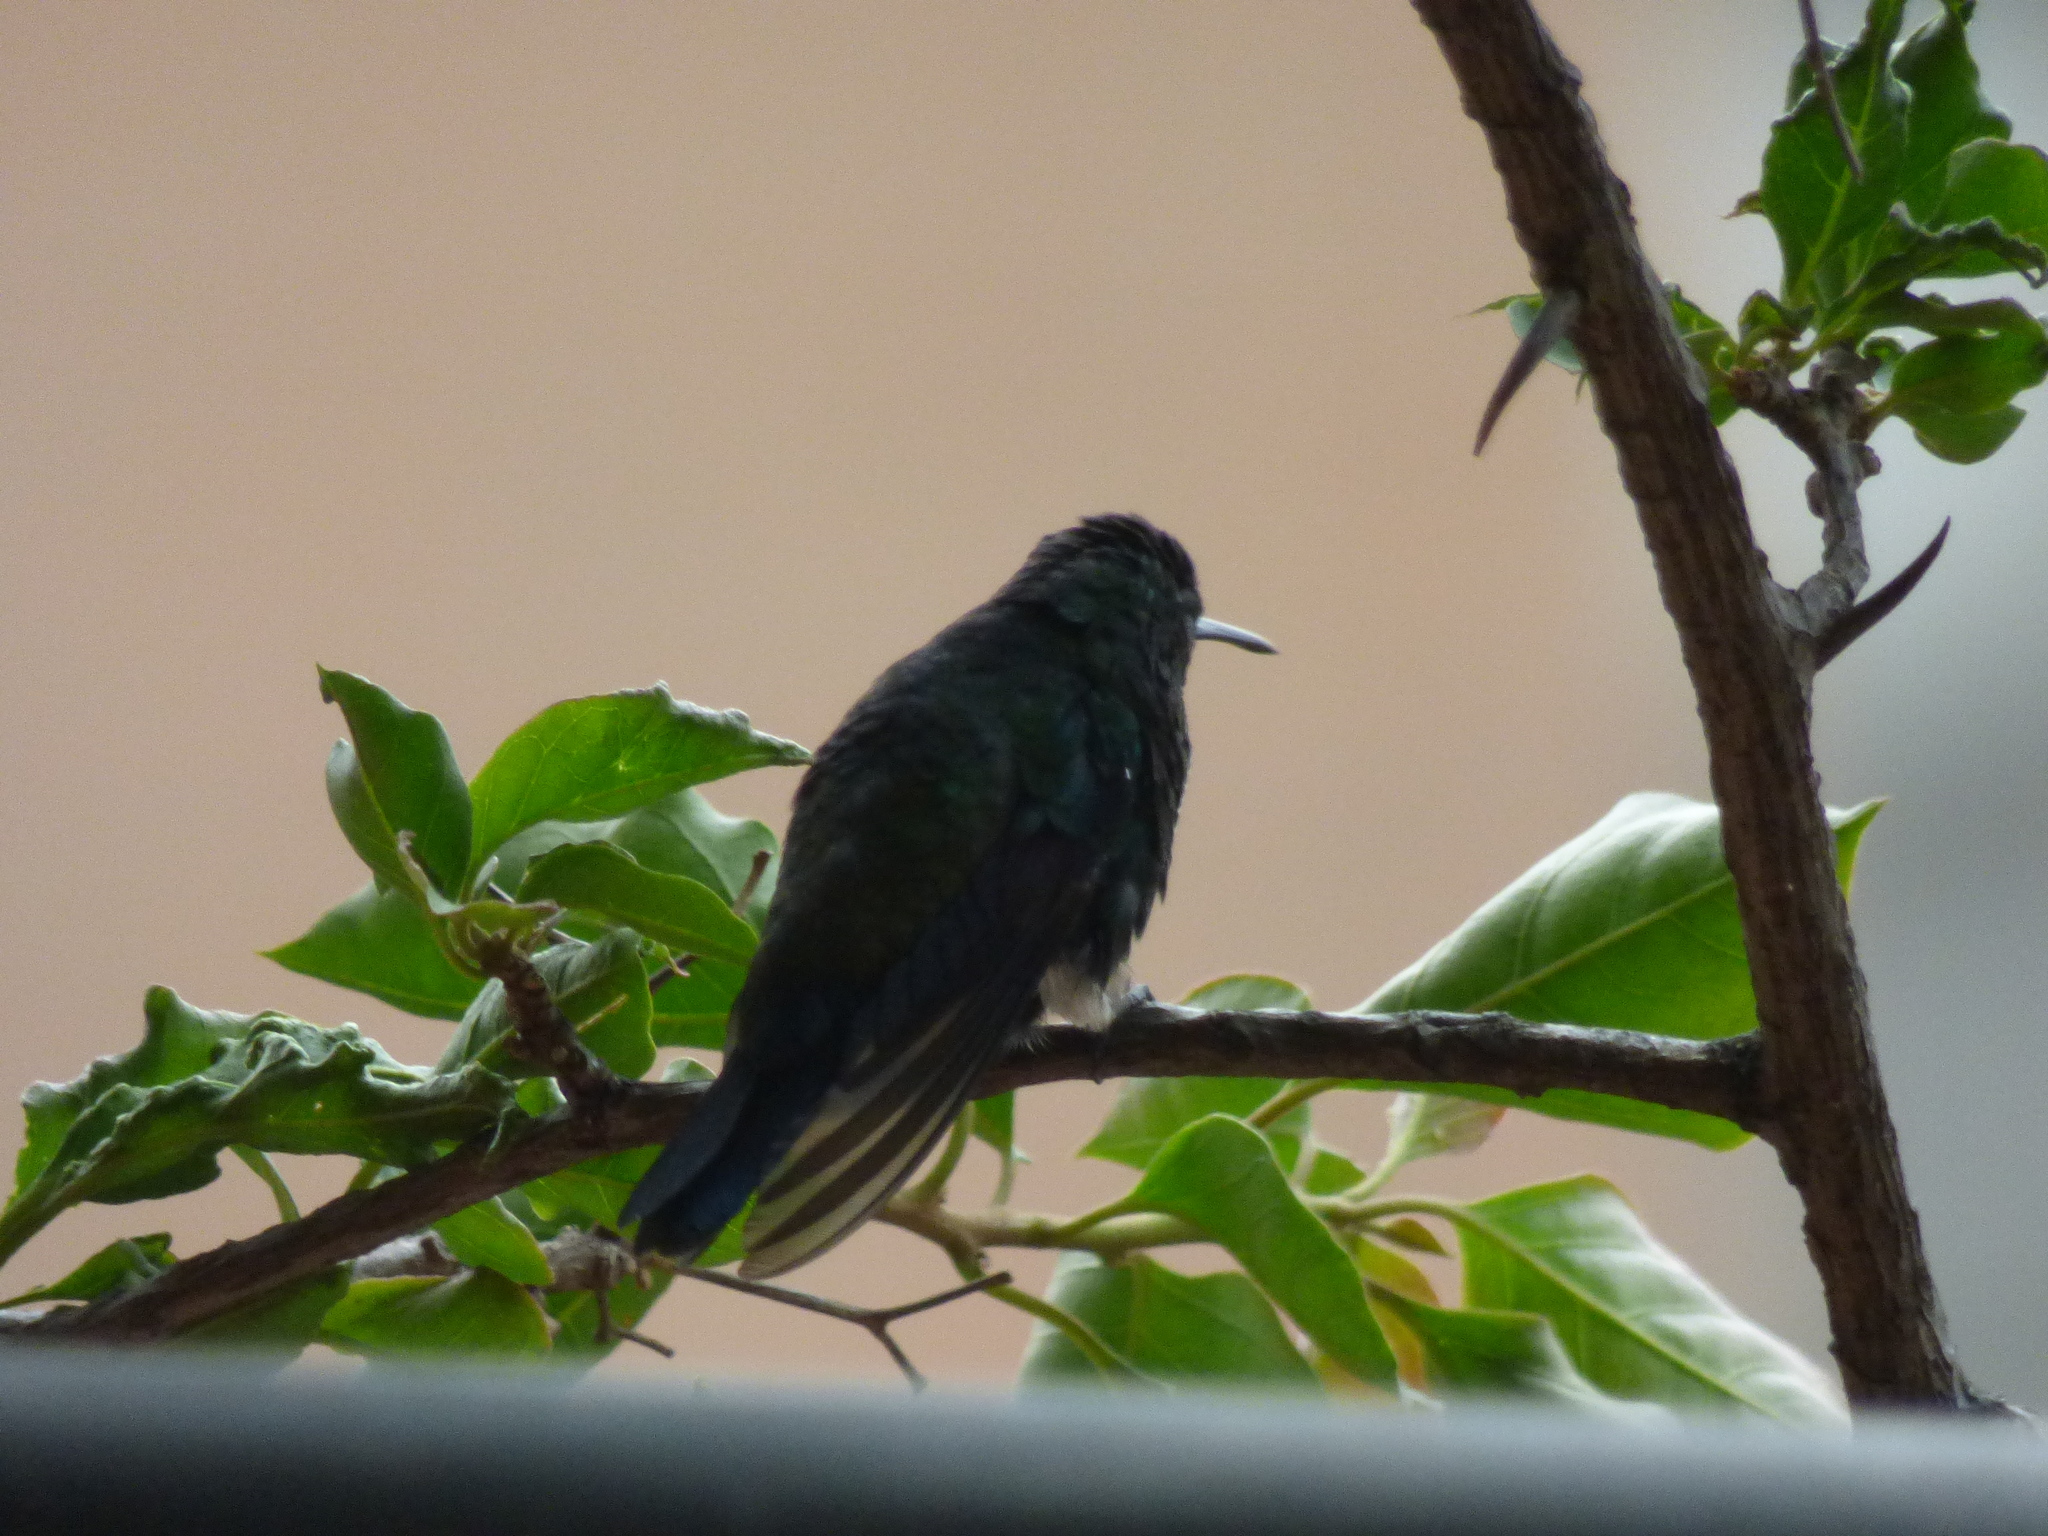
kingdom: Animalia
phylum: Chordata
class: Aves
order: Apodiformes
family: Trochilidae
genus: Saucerottia
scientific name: Saucerottia saucerottei
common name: Steely-vented hummingbird
